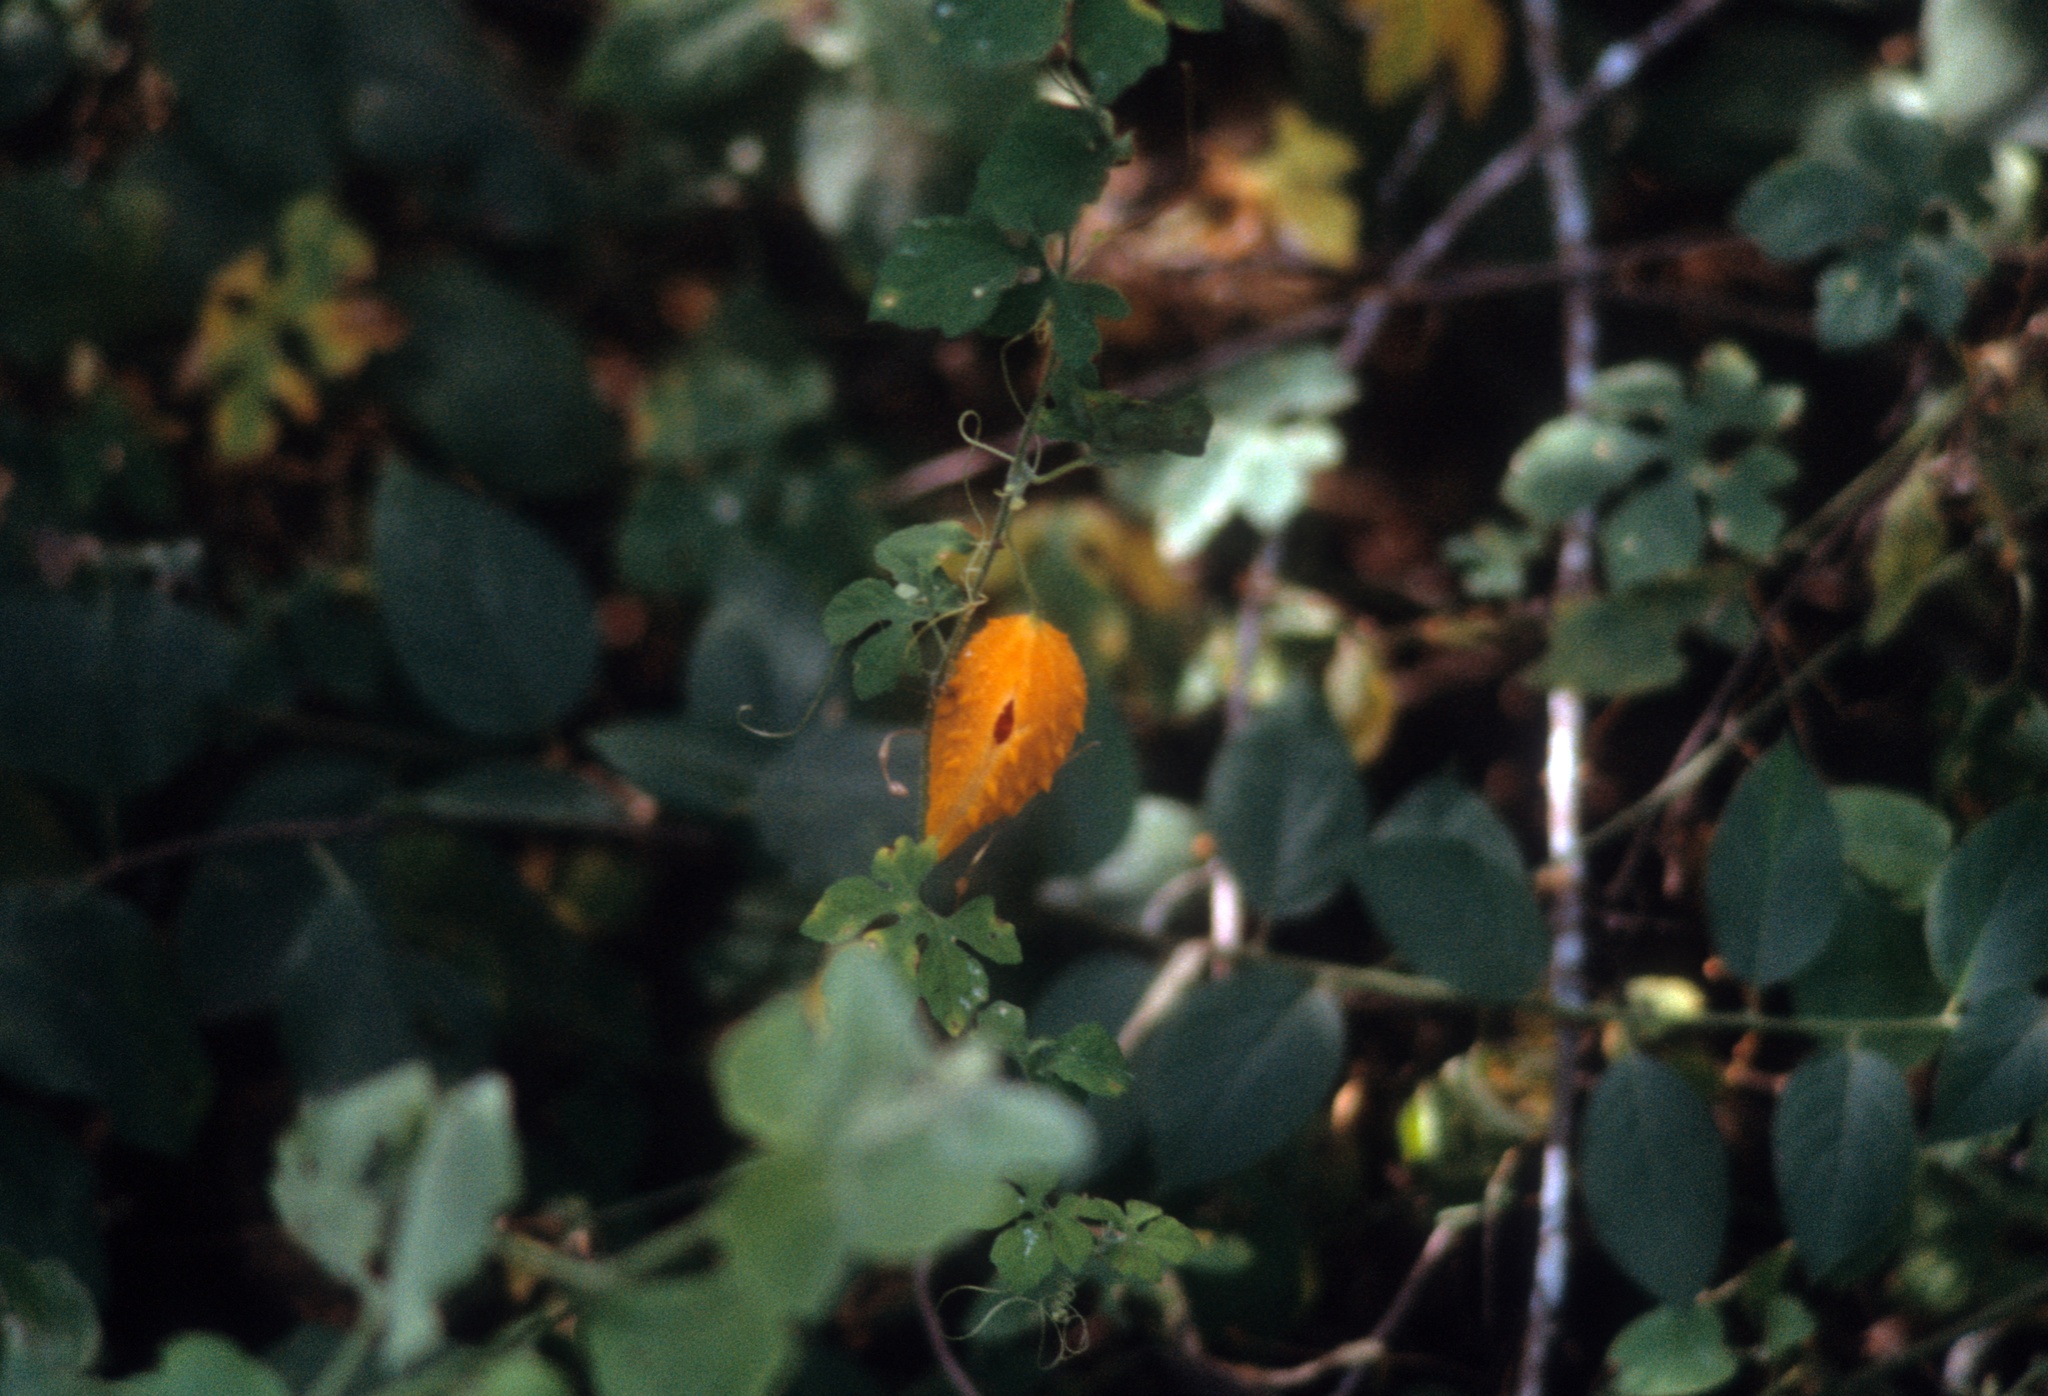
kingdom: Plantae
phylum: Tracheophyta
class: Magnoliopsida
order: Cucurbitales
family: Cucurbitaceae
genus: Momordica
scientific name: Momordica charantia
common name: Balsampear
